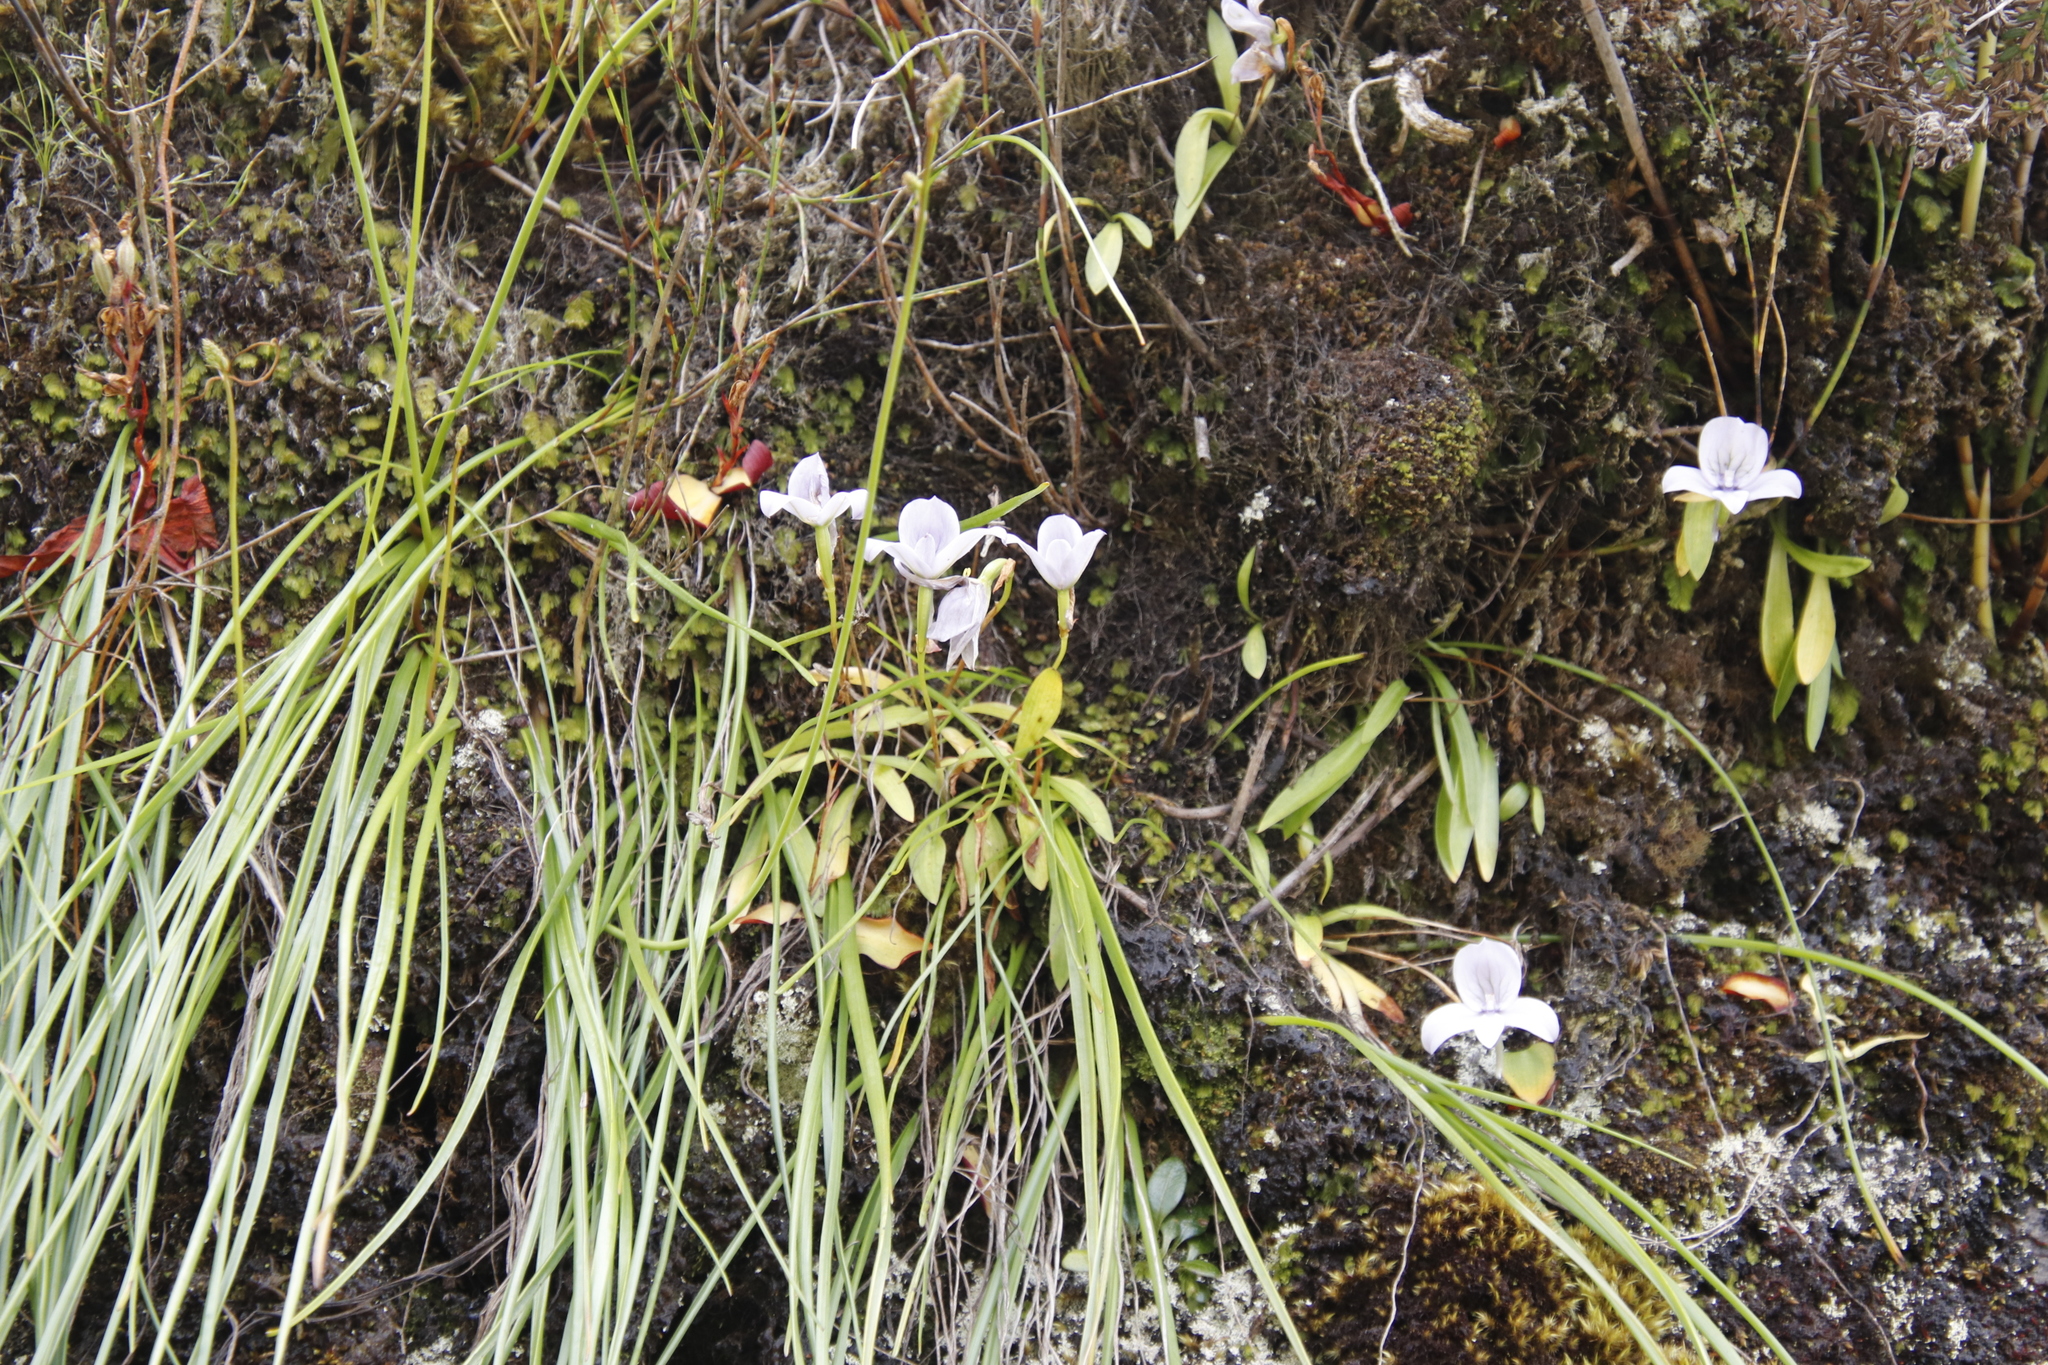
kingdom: Plantae
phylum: Tracheophyta
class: Liliopsida
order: Asparagales
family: Orchidaceae
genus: Disa
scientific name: Disa longicornu
